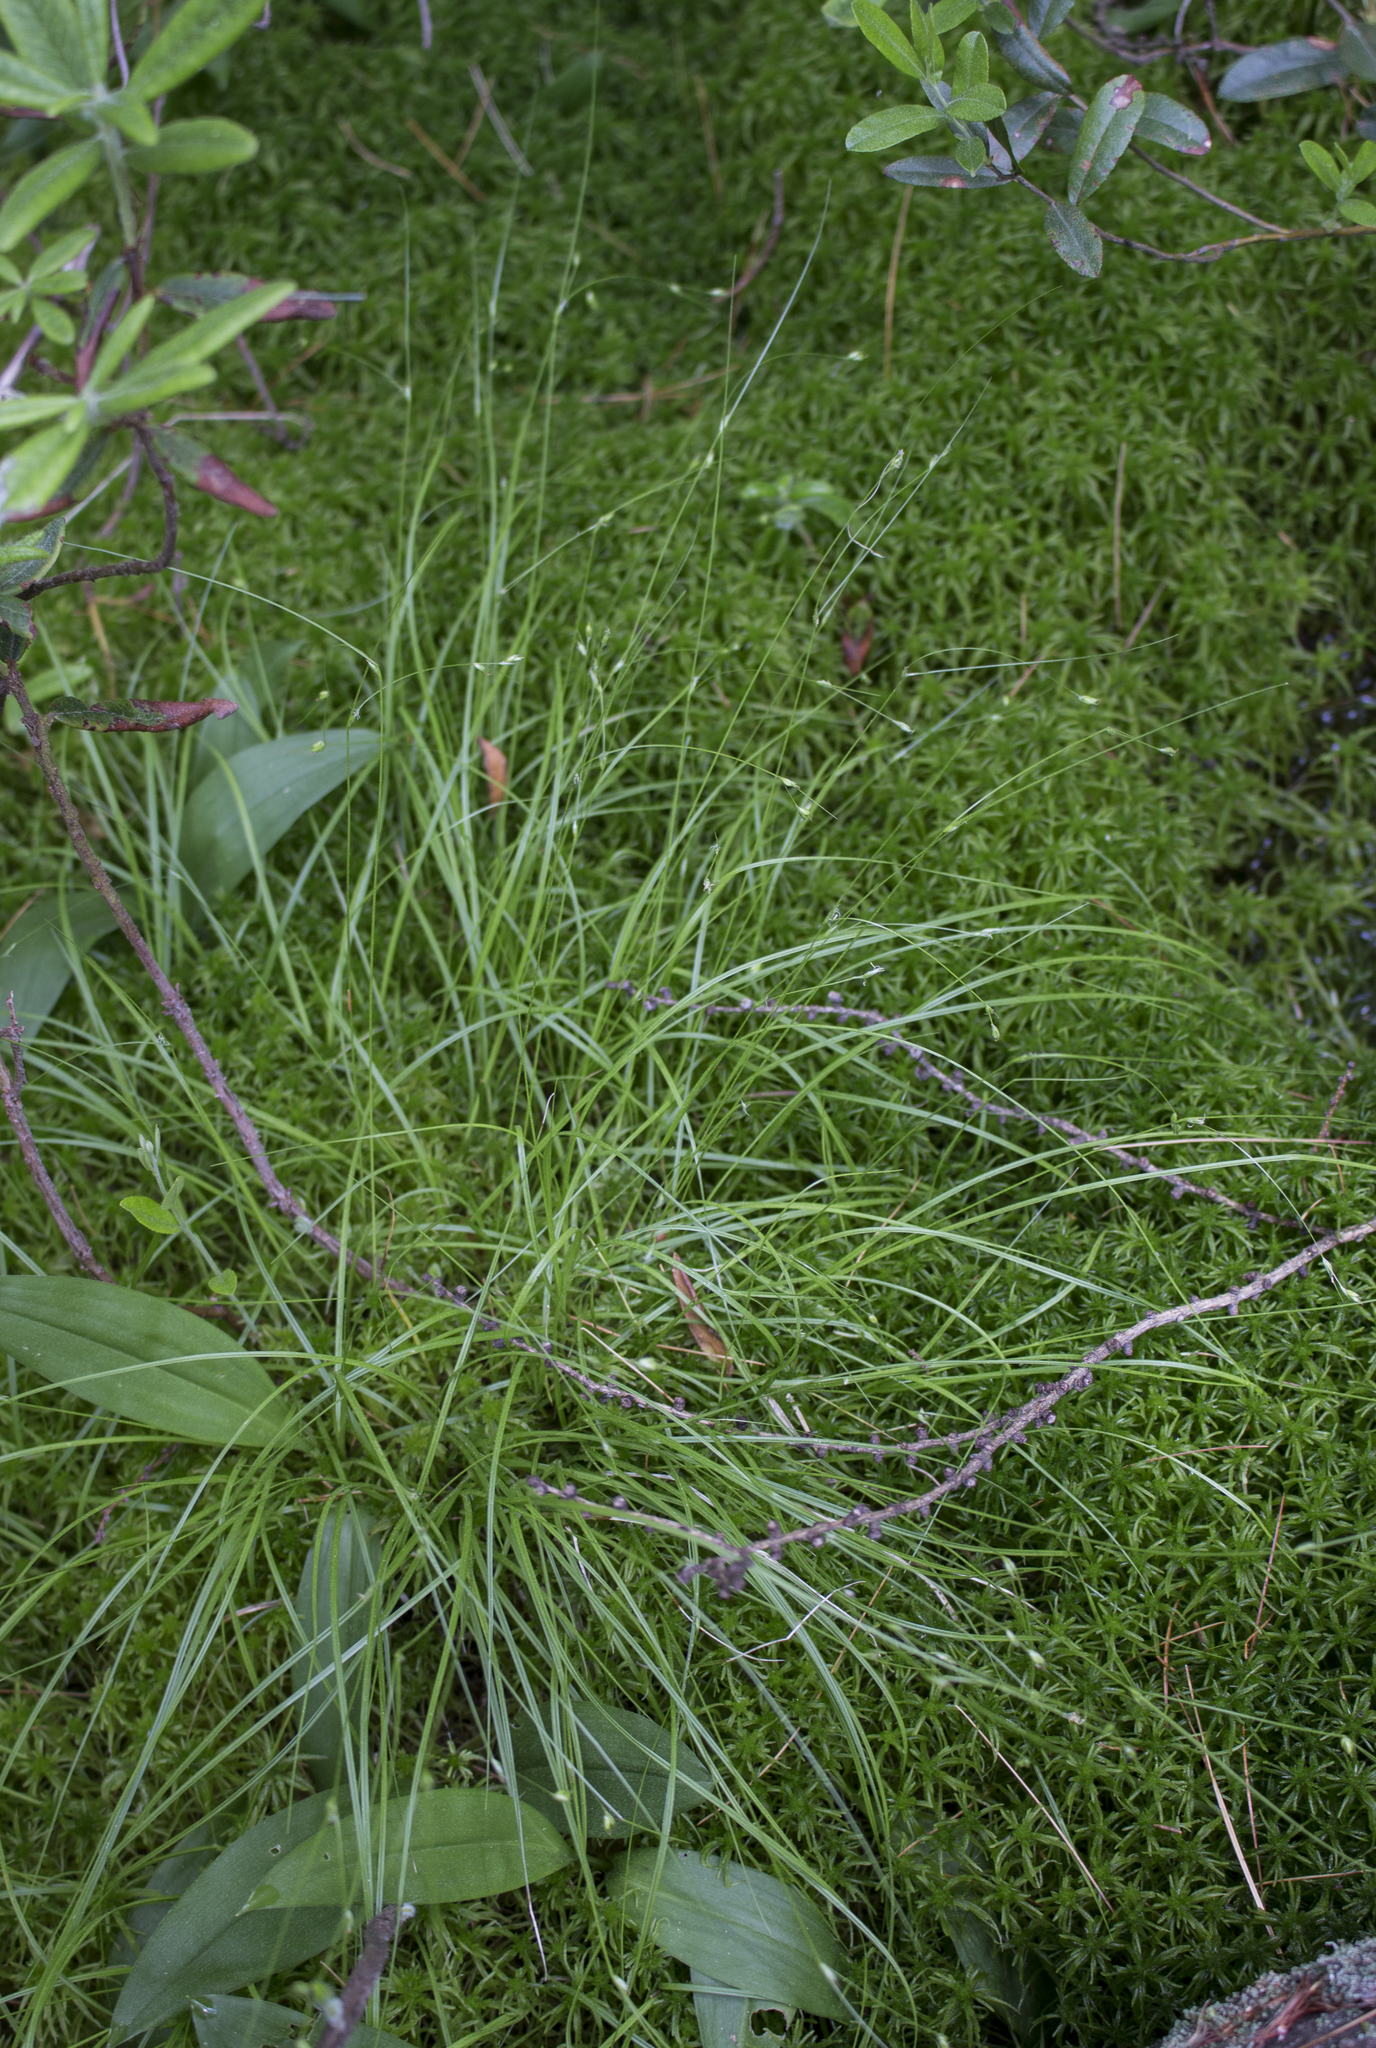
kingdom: Plantae
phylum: Tracheophyta
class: Liliopsida
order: Poales
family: Cyperaceae
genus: Carex
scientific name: Carex trisperma
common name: Three-seeded sedge
